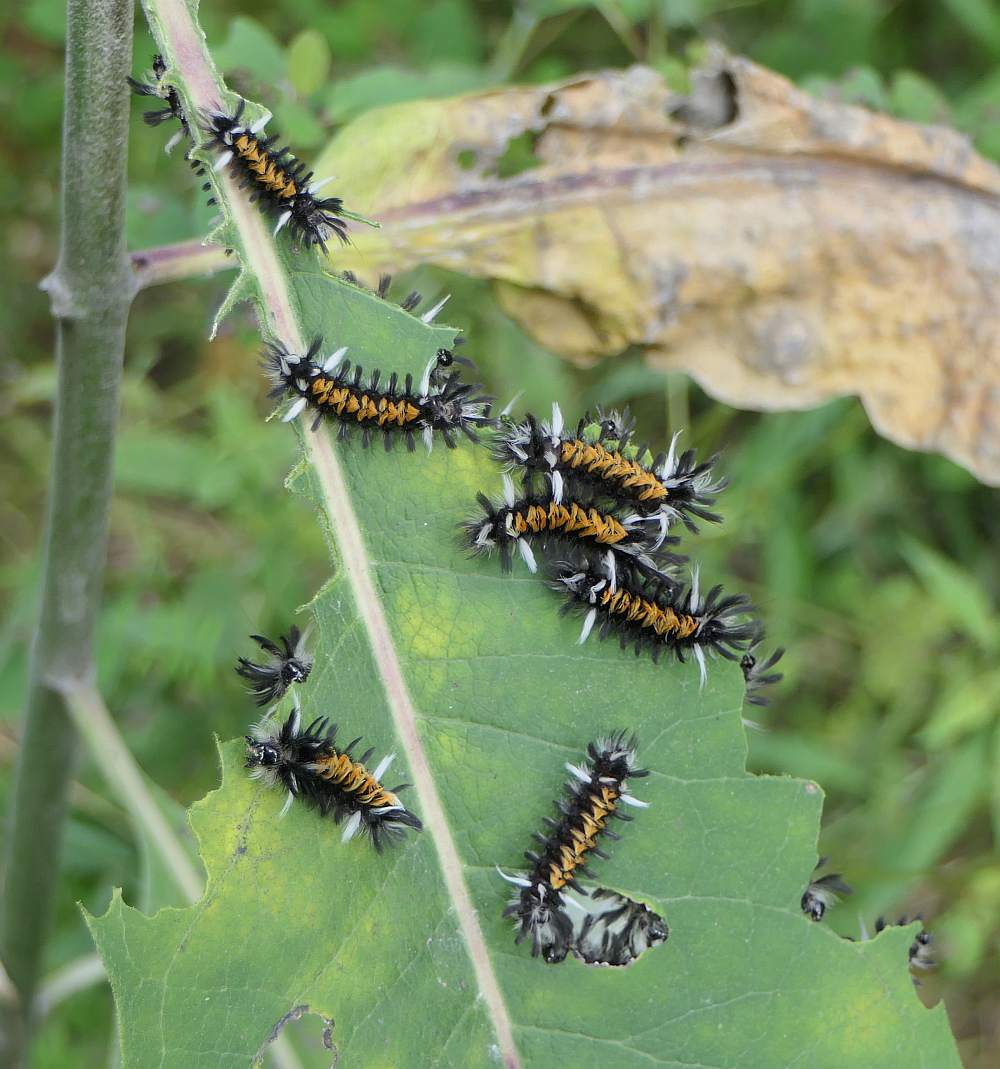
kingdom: Animalia
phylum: Arthropoda
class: Insecta
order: Lepidoptera
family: Erebidae
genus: Euchaetes
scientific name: Euchaetes egle
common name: Milkweed tussock moth
